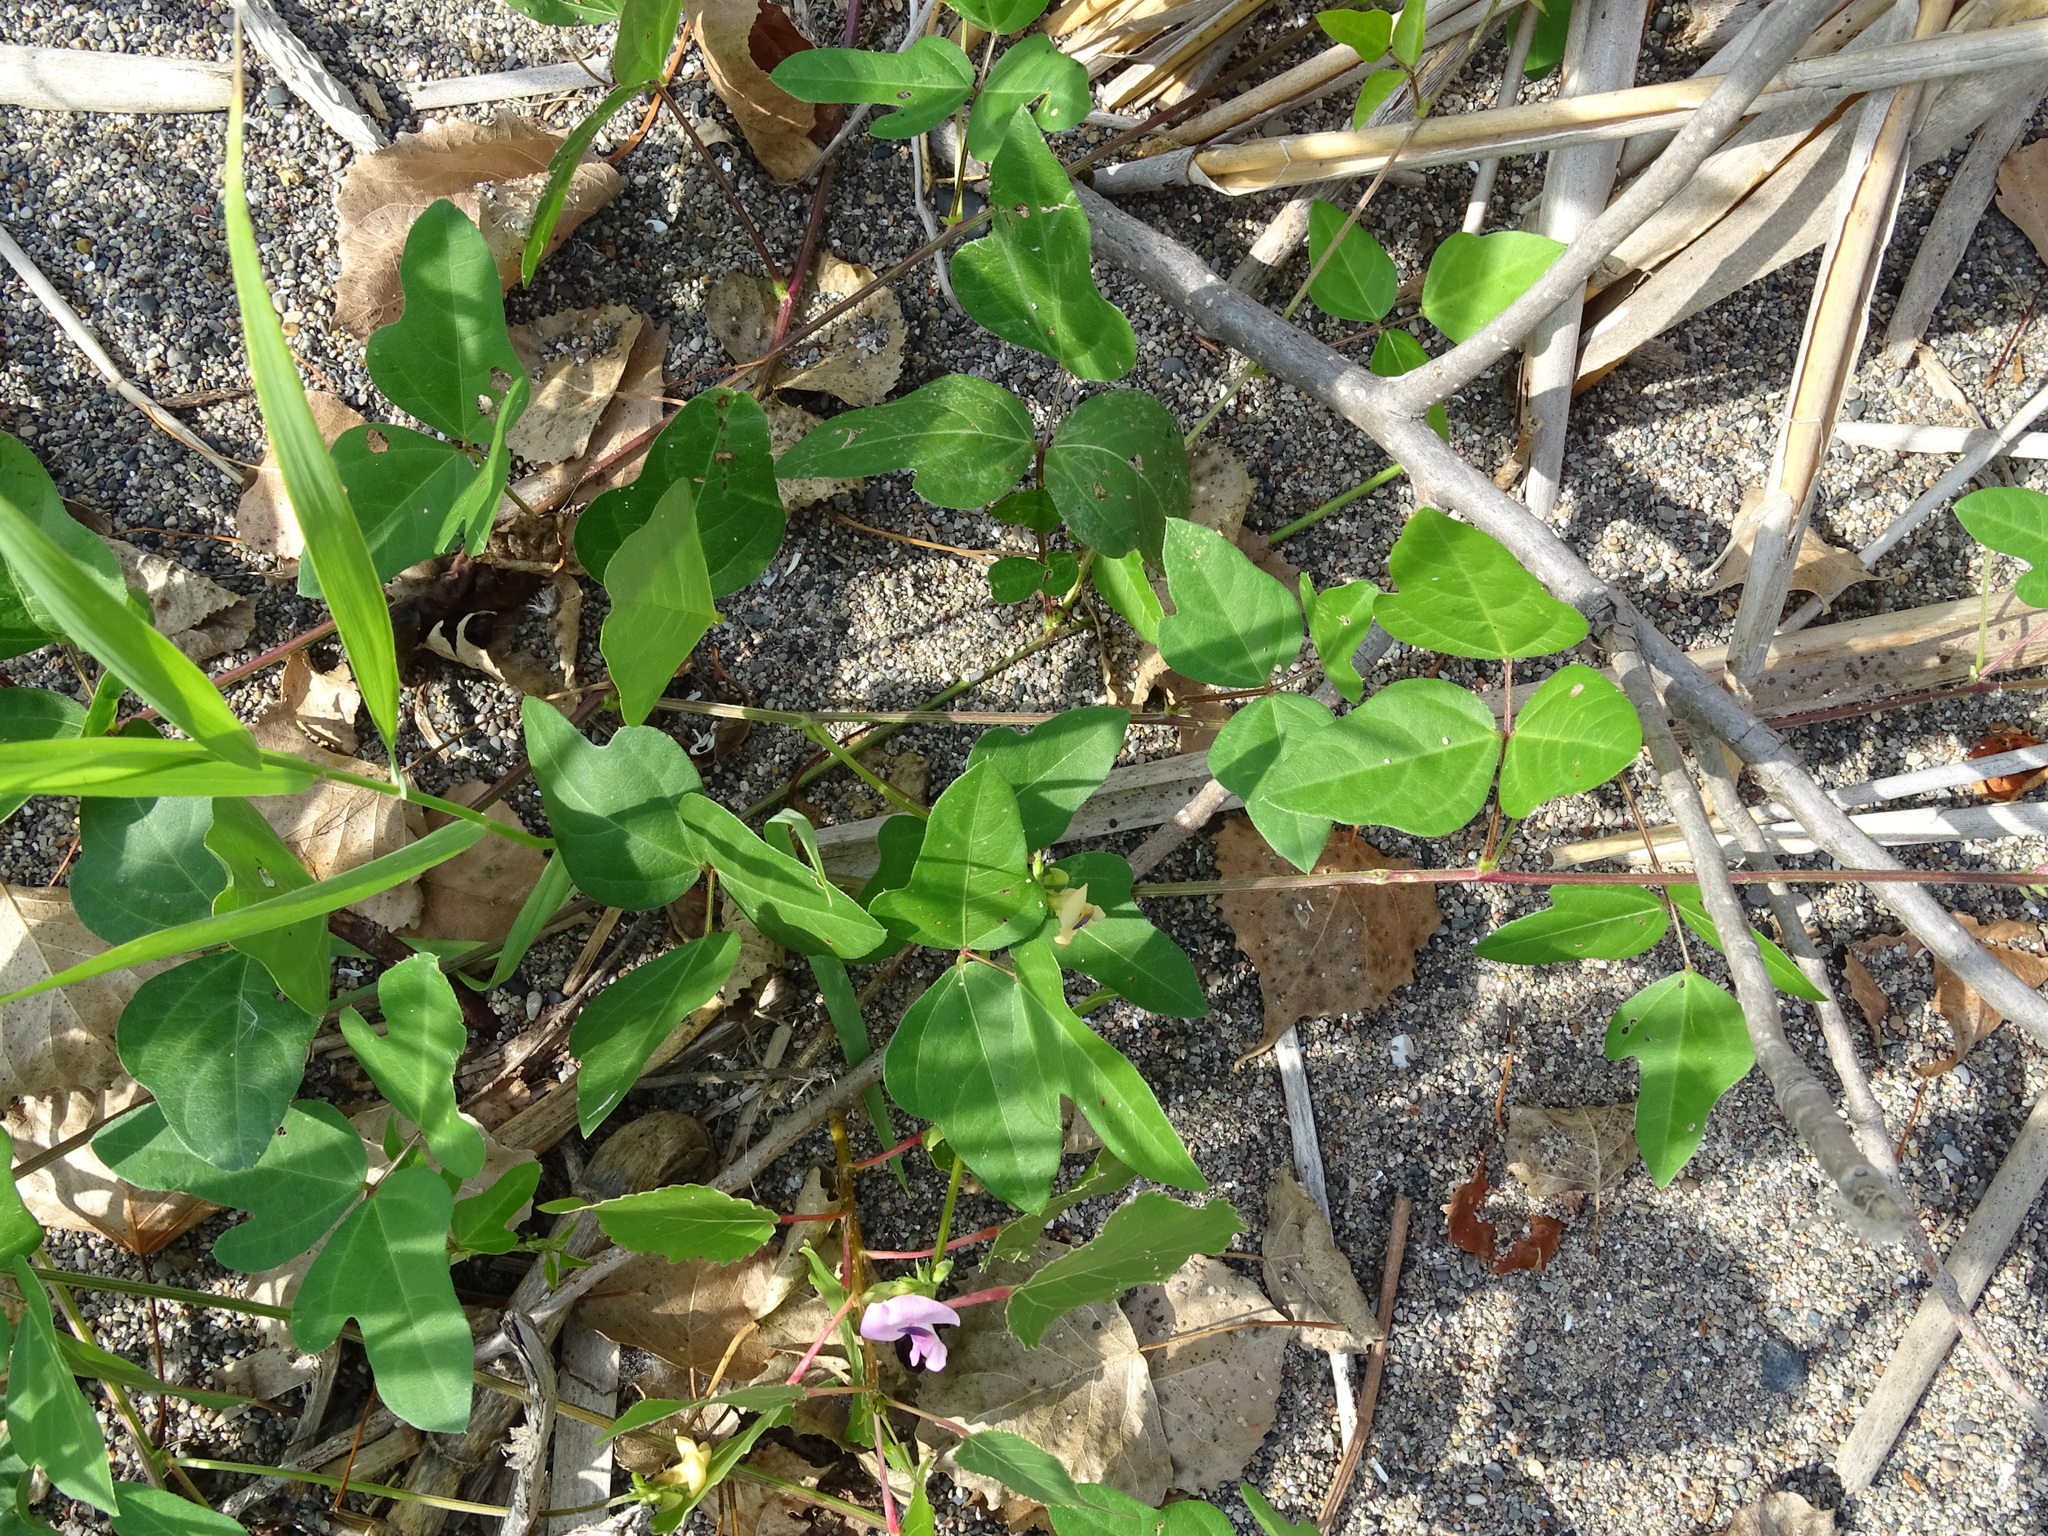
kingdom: Plantae
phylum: Tracheophyta
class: Magnoliopsida
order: Fabales
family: Fabaceae
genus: Strophostyles
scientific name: Strophostyles helvola
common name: Trailing wild bean
